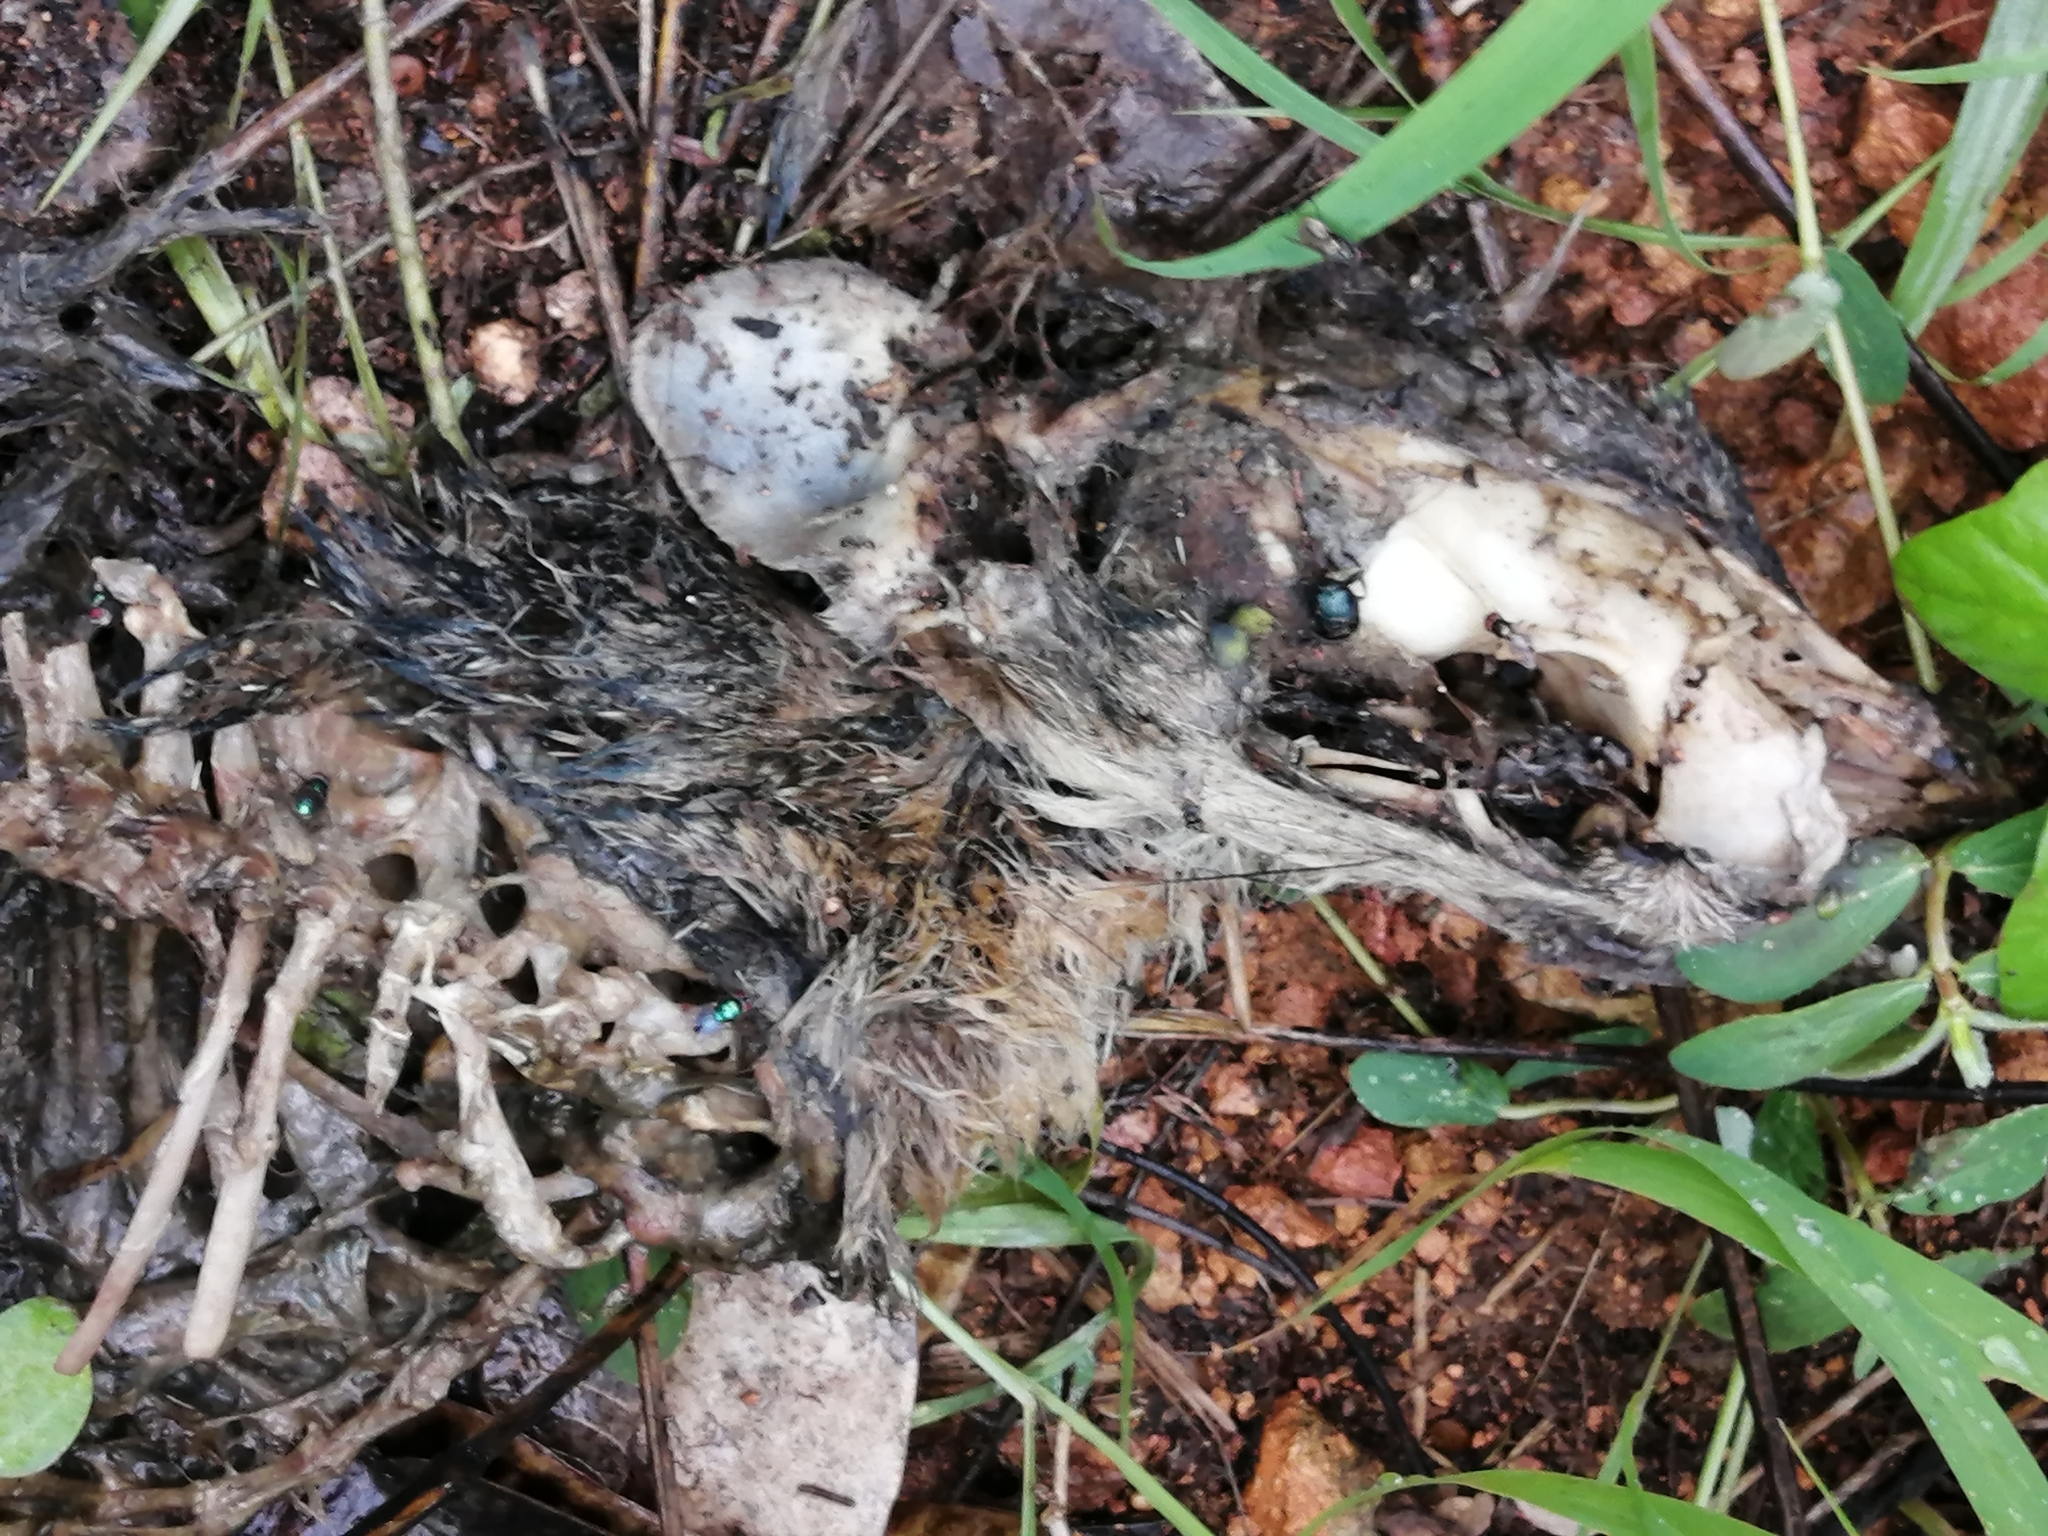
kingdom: Animalia
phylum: Chordata
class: Mammalia
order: Carnivora
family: Canidae
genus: Urocyon
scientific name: Urocyon cinereoargenteus
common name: Gray fox
